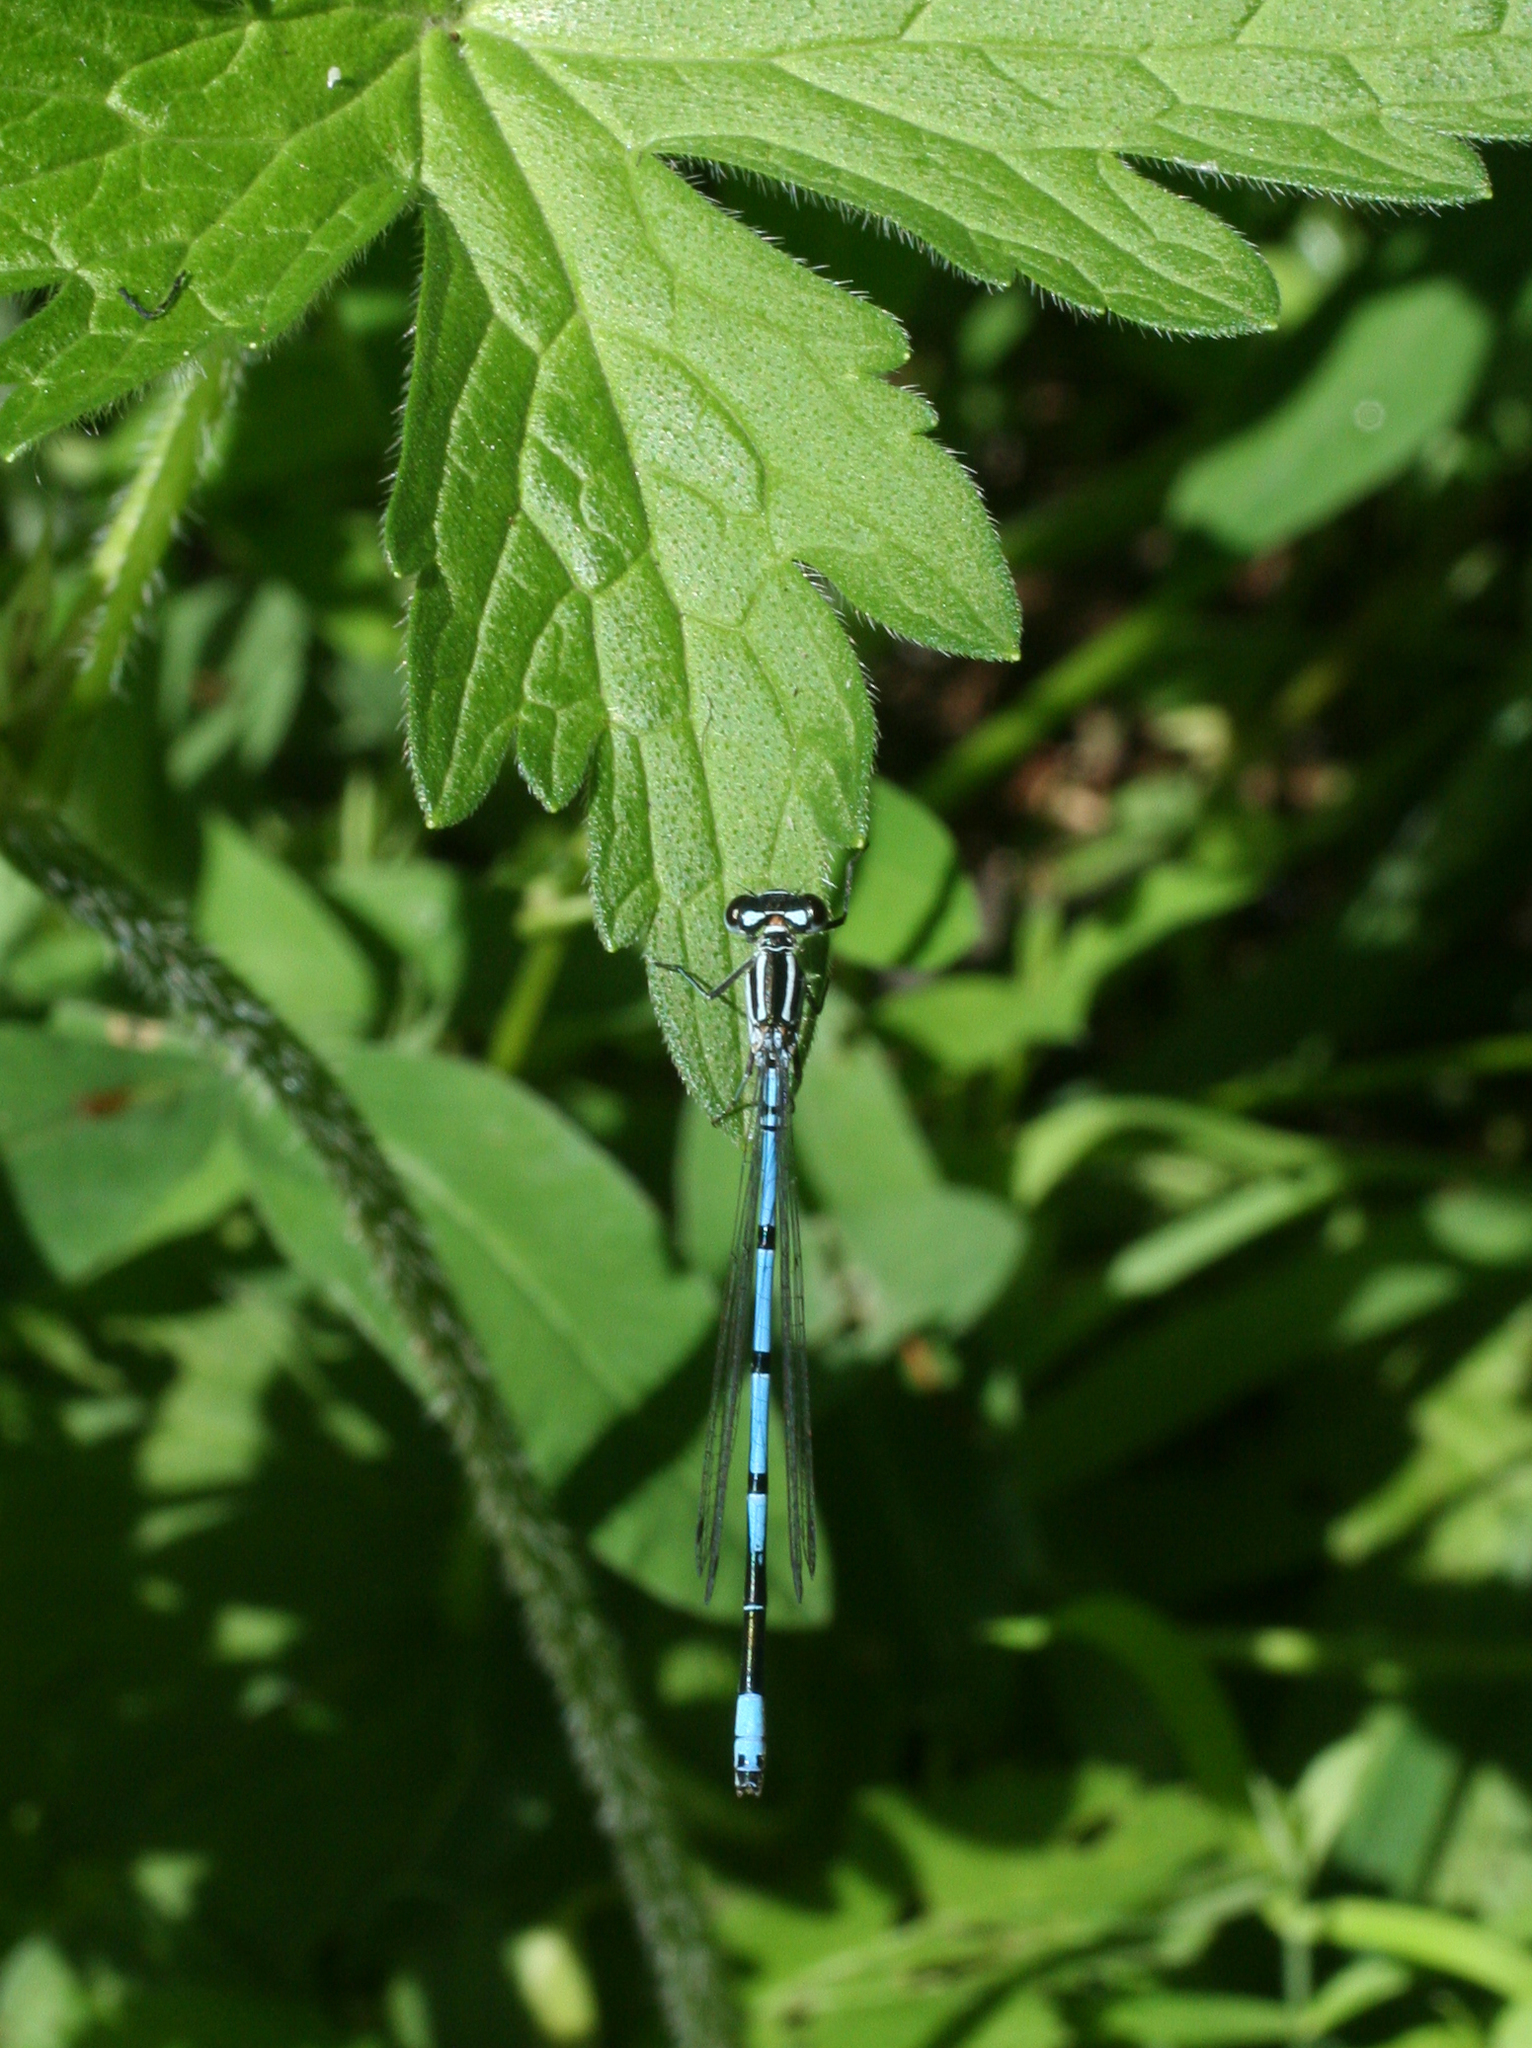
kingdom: Animalia
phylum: Arthropoda
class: Insecta
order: Odonata
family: Coenagrionidae
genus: Coenagrion
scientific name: Coenagrion puella
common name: Azure damselfly
